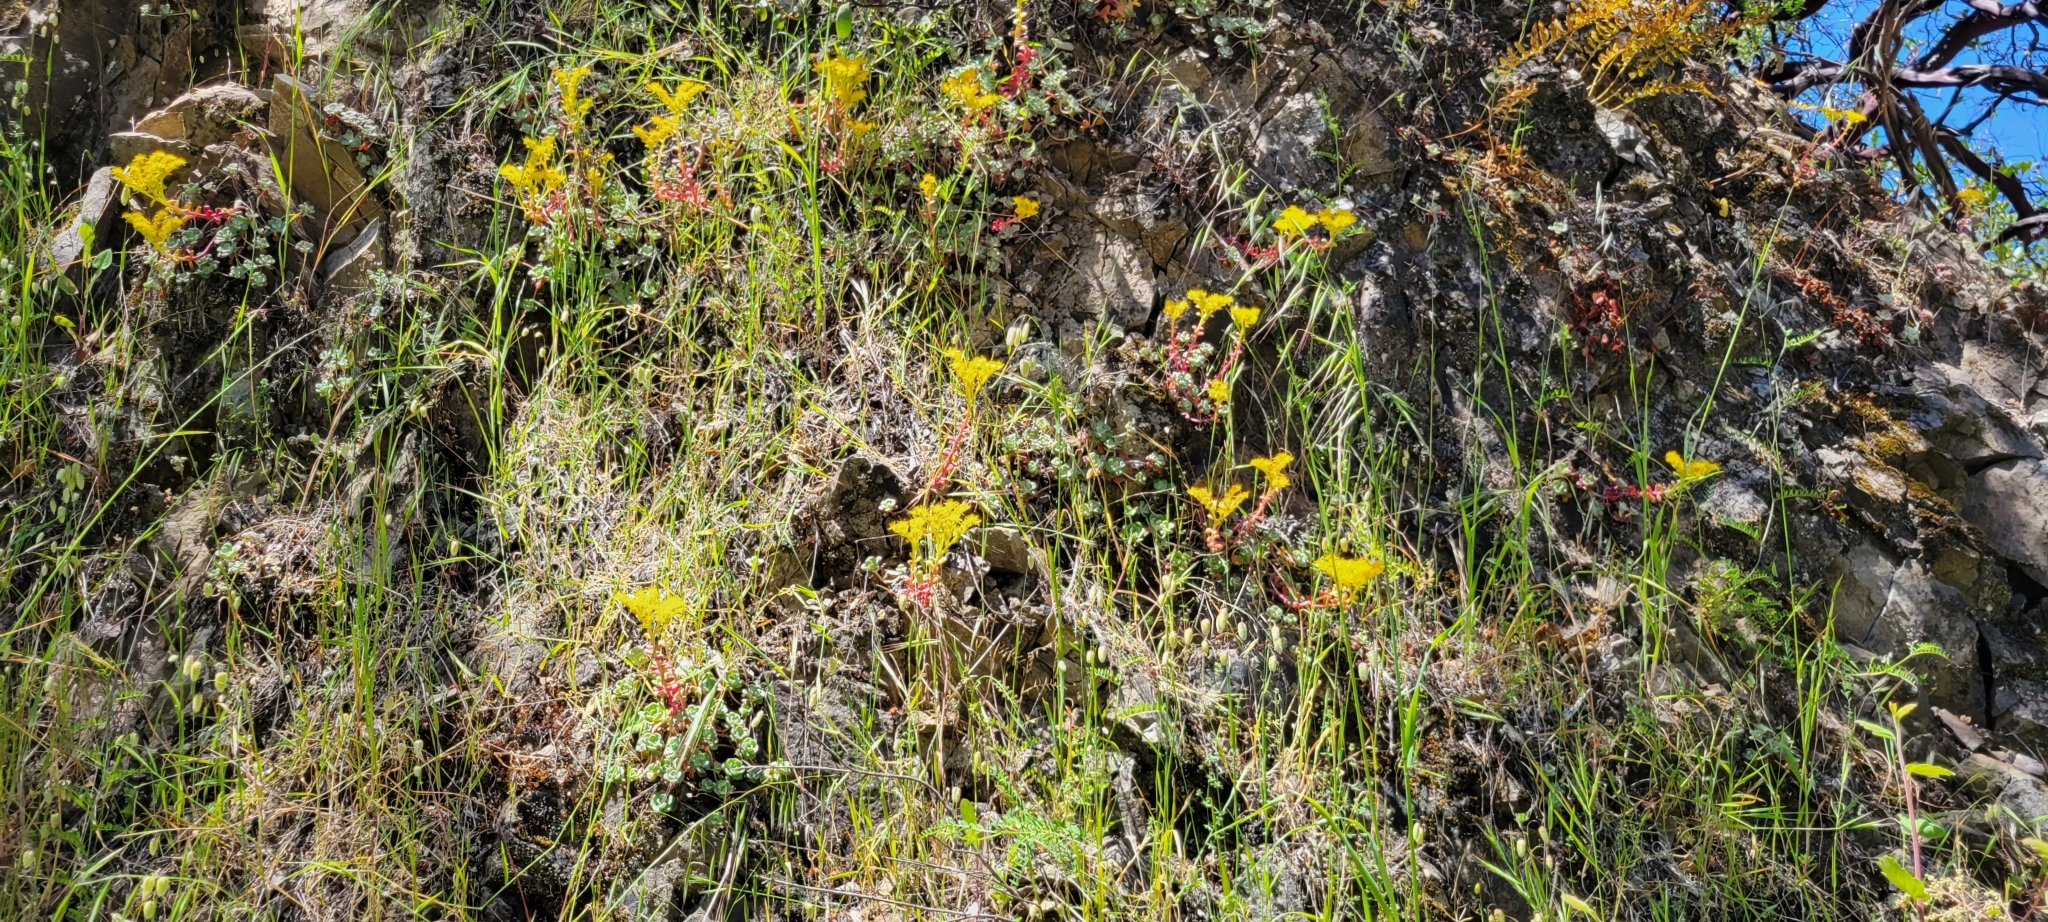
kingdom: Plantae
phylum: Tracheophyta
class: Magnoliopsida
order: Saxifragales
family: Crassulaceae
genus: Sedum
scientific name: Sedum spathulifolium
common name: Colorado stonecrop
